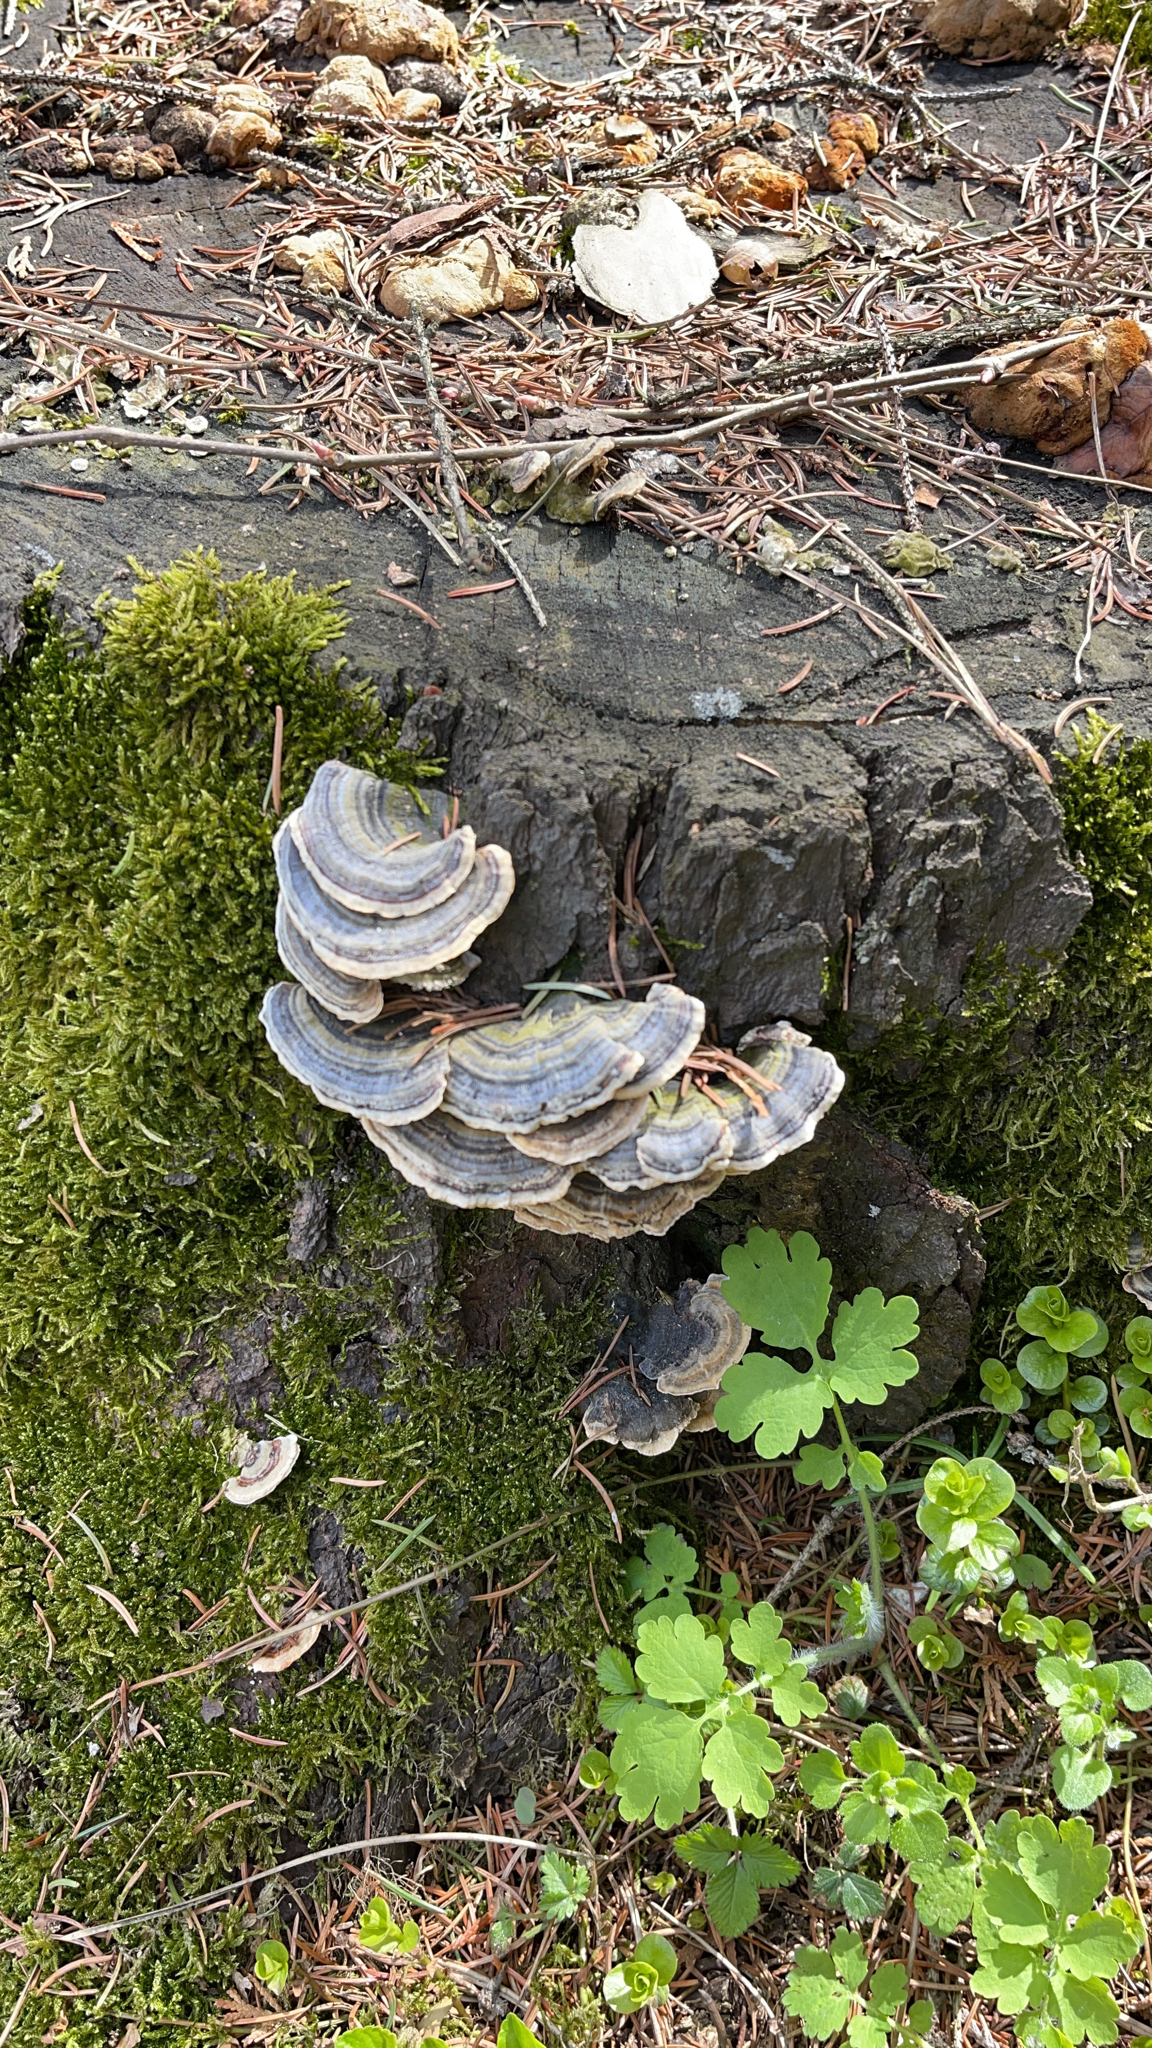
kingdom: Fungi
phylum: Basidiomycota
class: Agaricomycetes
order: Polyporales
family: Polyporaceae
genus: Trametes
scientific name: Trametes versicolor
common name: Turkeytail
